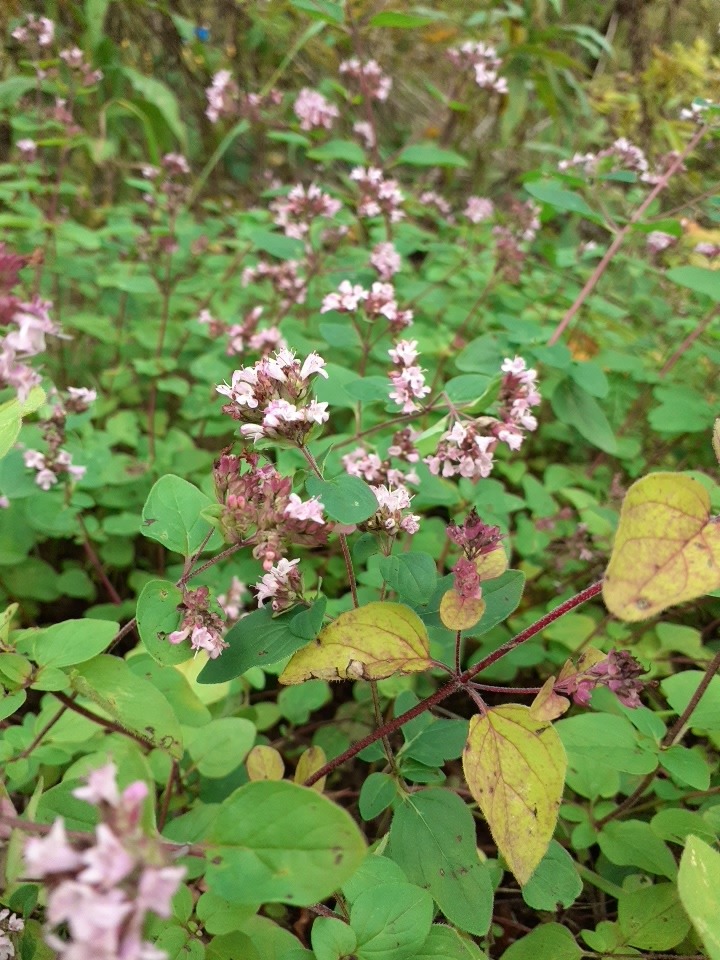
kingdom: Plantae
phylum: Tracheophyta
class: Magnoliopsida
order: Lamiales
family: Lamiaceae
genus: Origanum
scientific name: Origanum vulgare
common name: Wild marjoram
